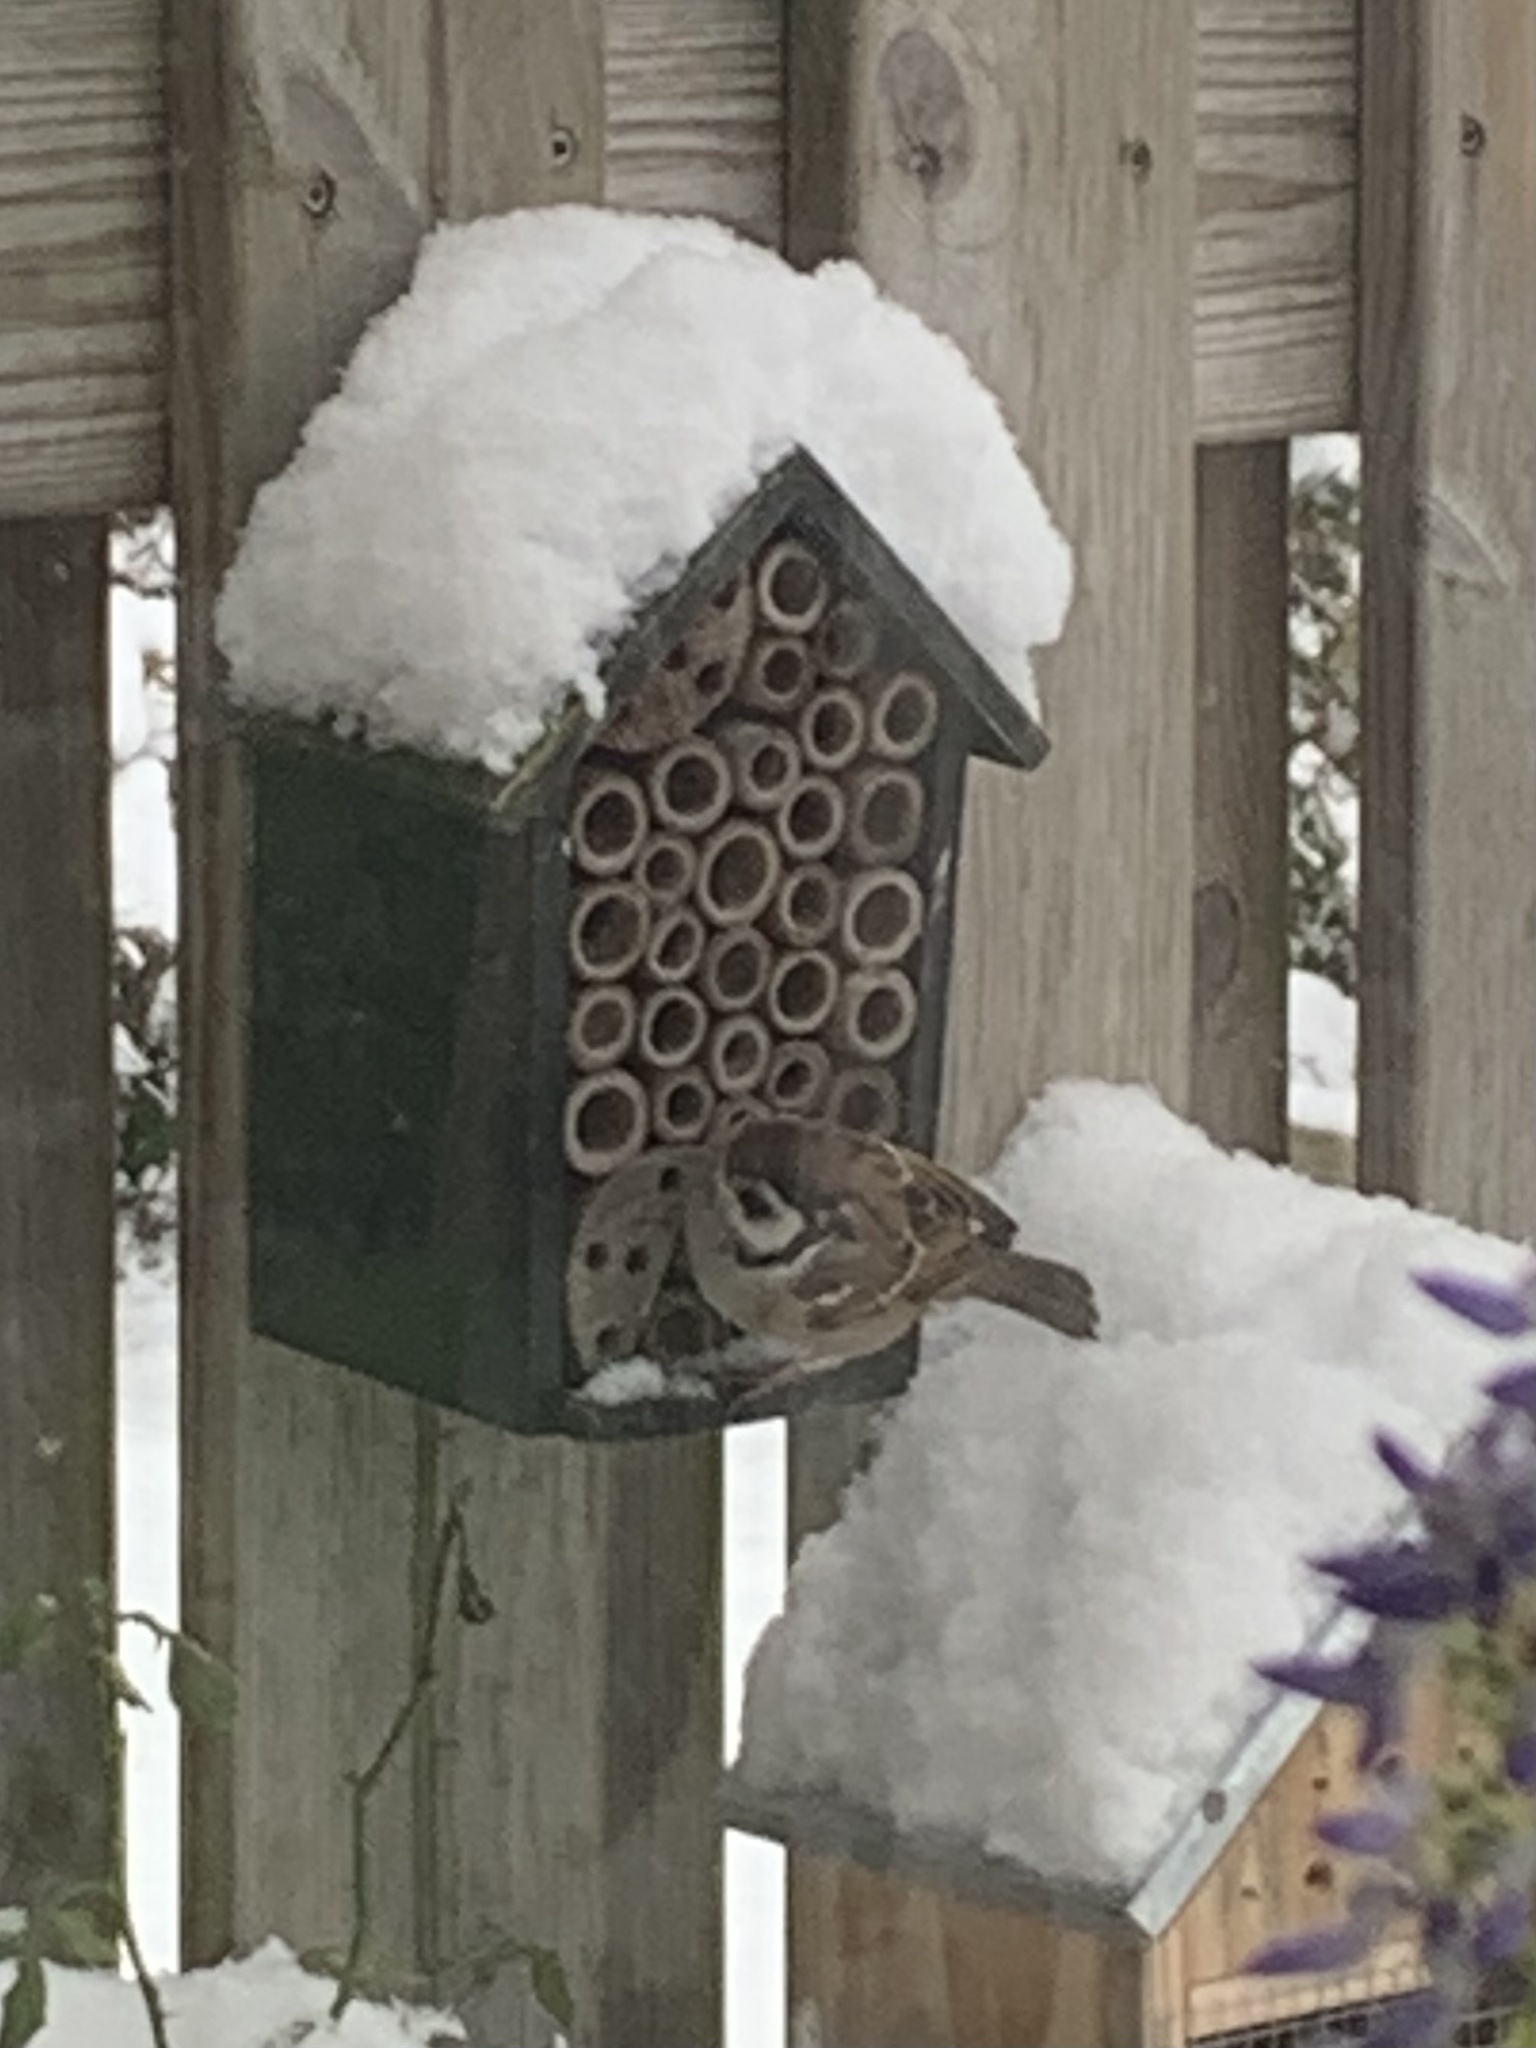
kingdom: Animalia
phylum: Chordata
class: Aves
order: Passeriformes
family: Passeridae
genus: Passer
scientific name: Passer montanus
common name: Eurasian tree sparrow
